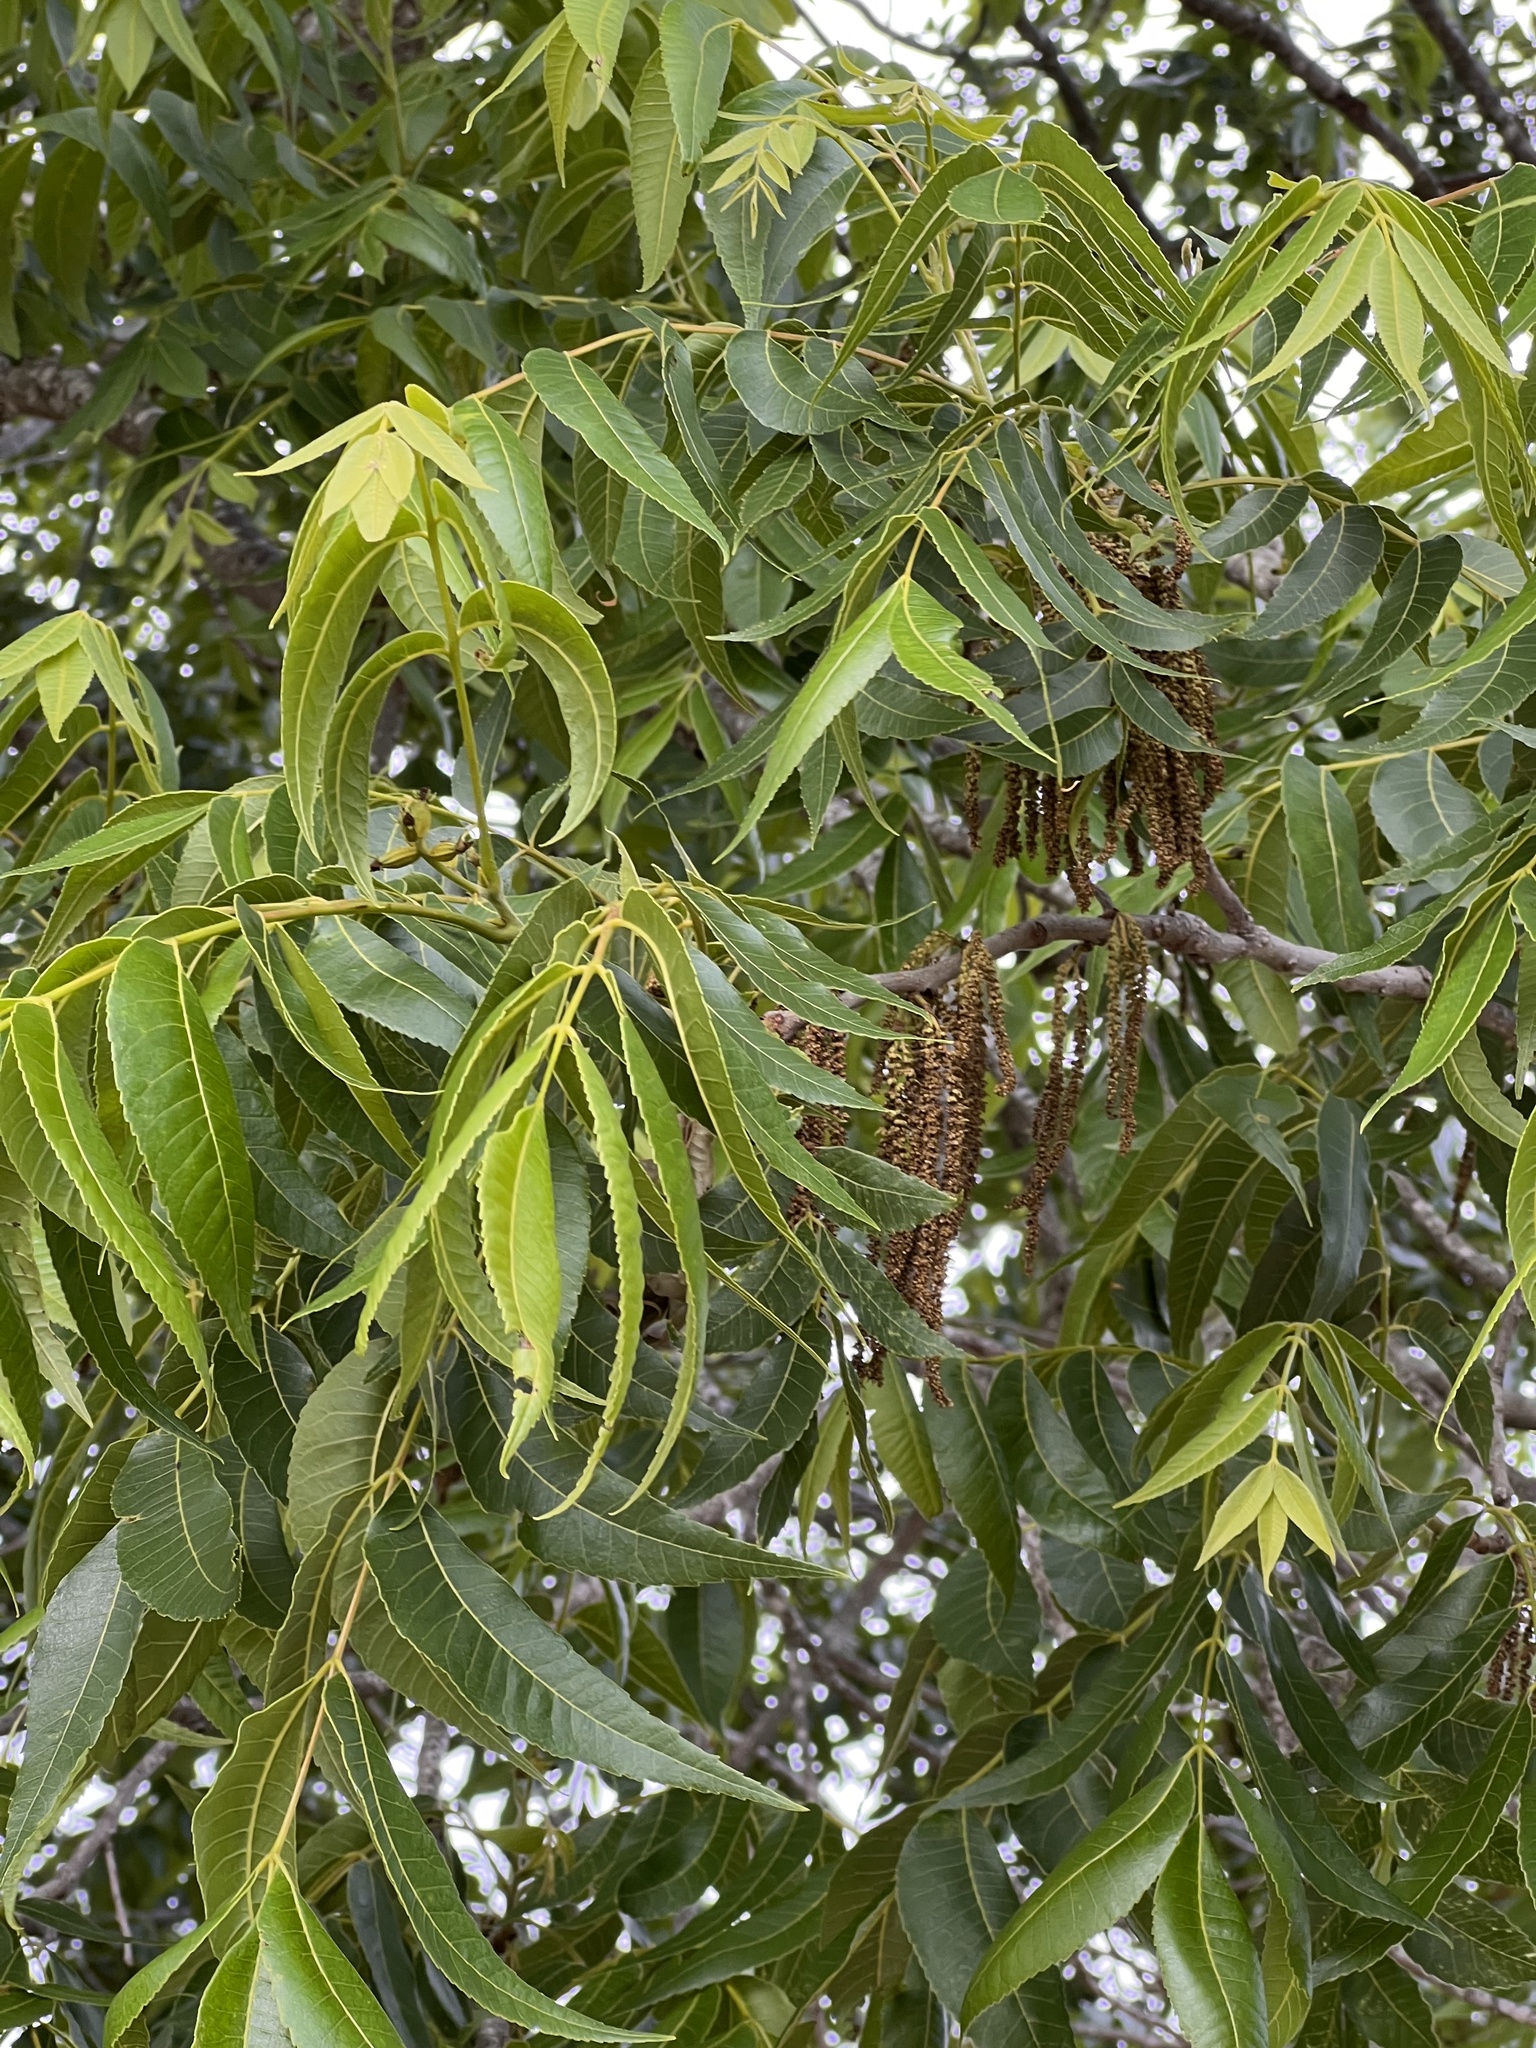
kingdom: Plantae
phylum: Tracheophyta
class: Magnoliopsida
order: Fagales
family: Juglandaceae
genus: Carya
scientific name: Carya illinoinensis
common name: Pecan
